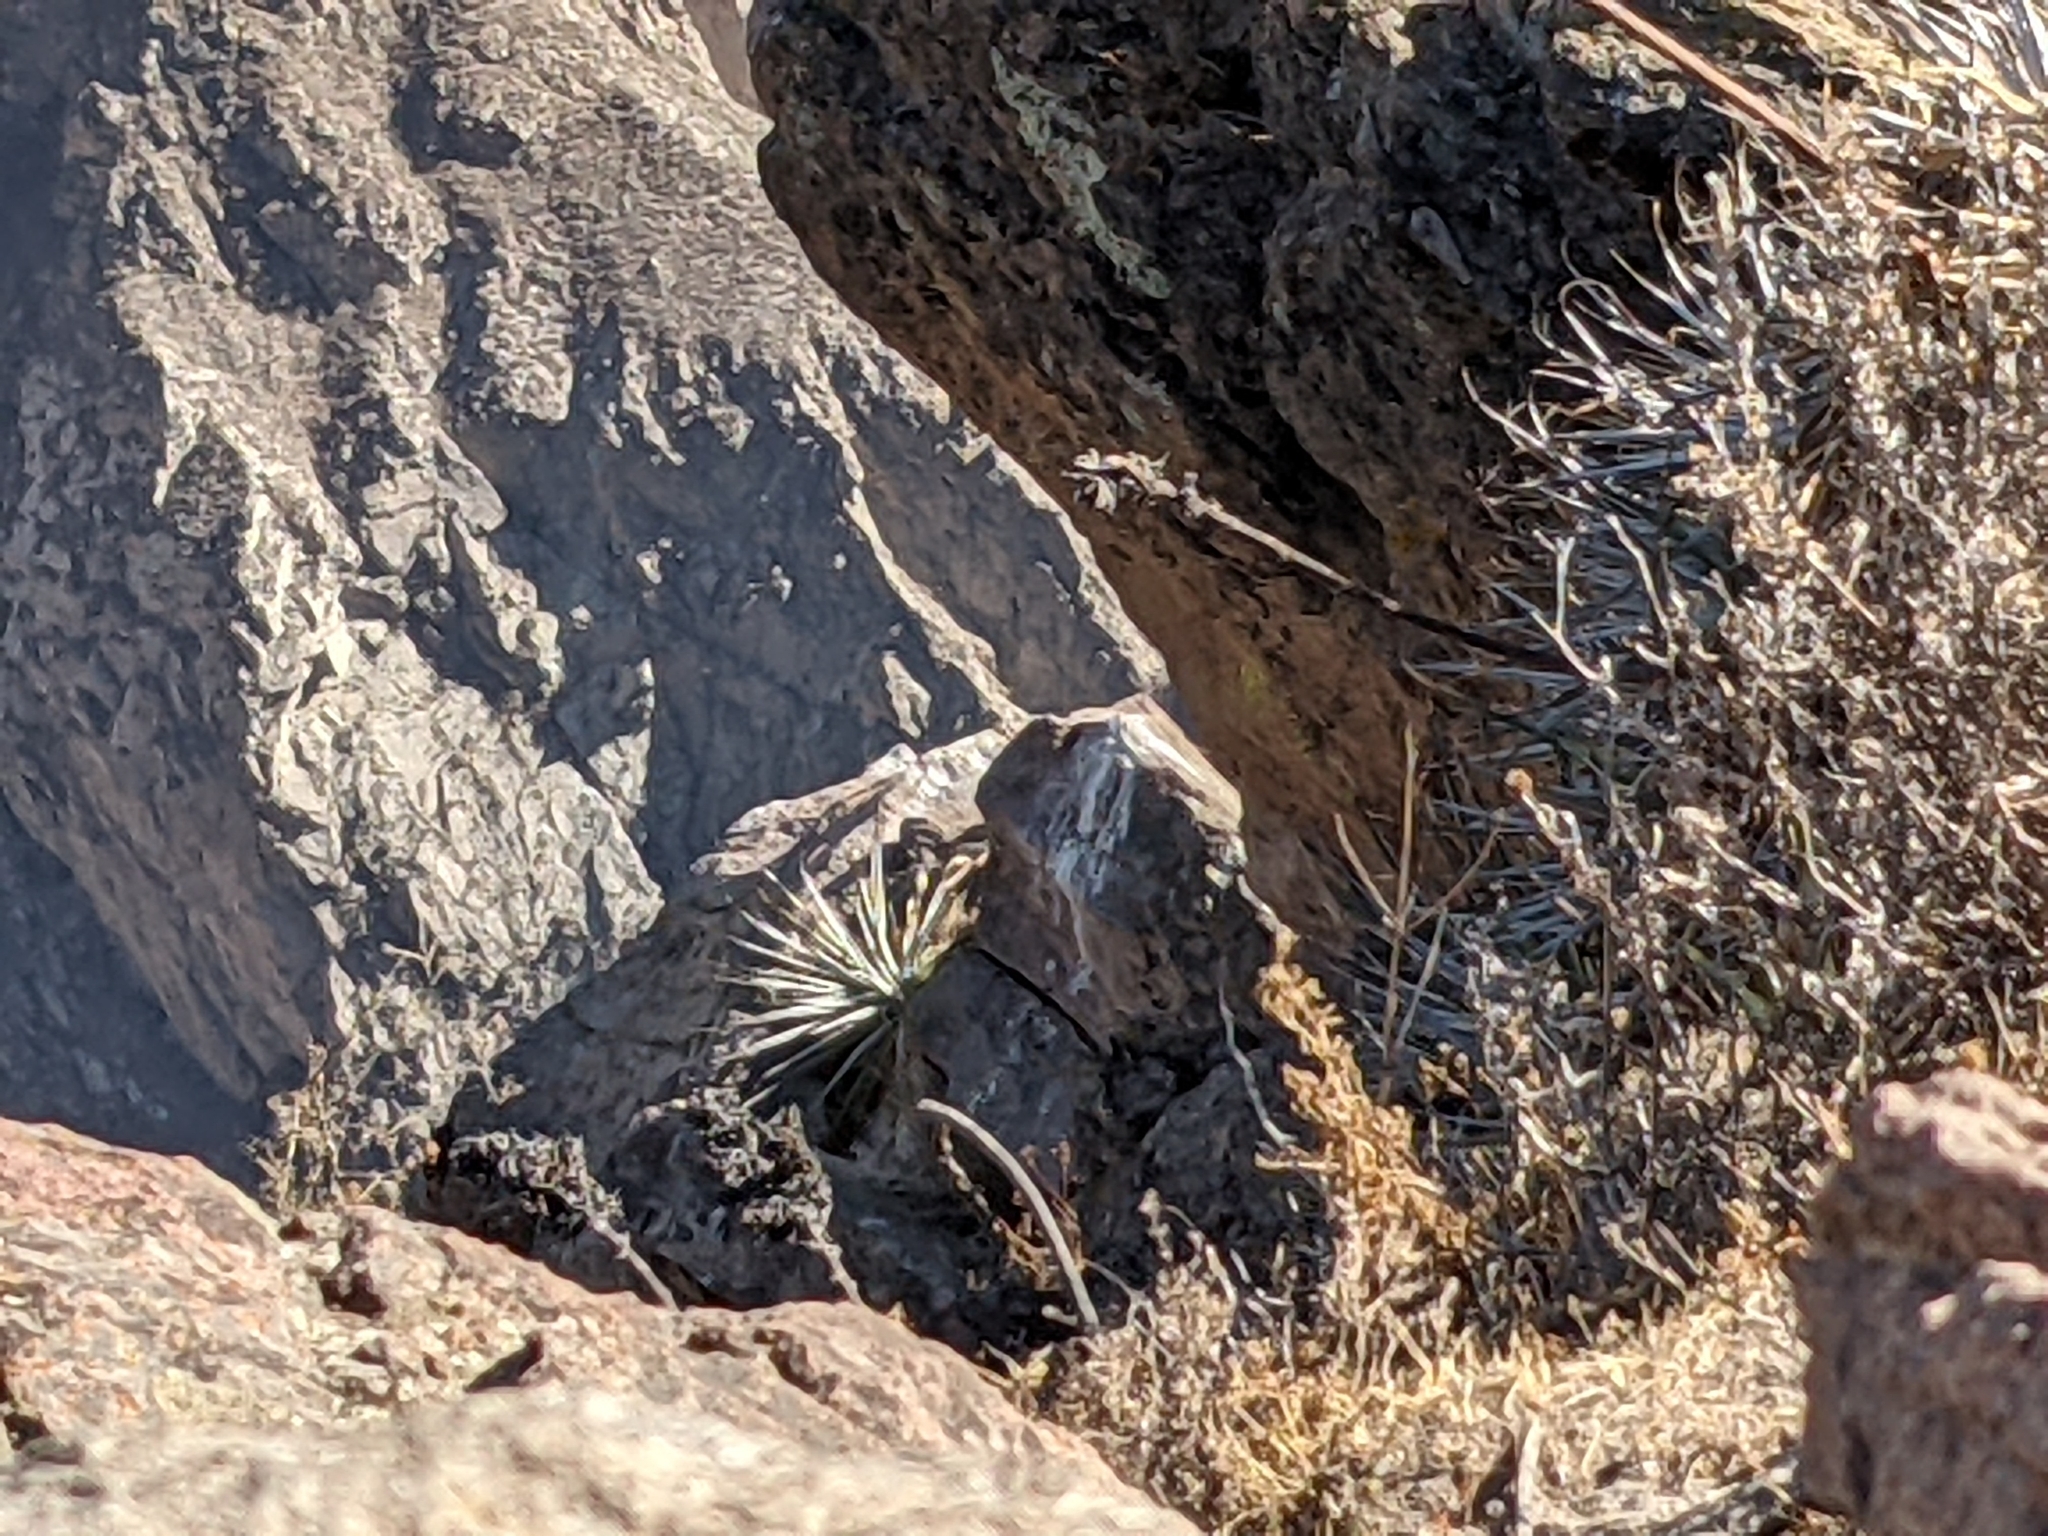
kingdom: Animalia
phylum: Chordata
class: Aves
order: Accipitriformes
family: Cathartidae
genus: Vultur
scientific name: Vultur gryphus
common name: Andean condor
